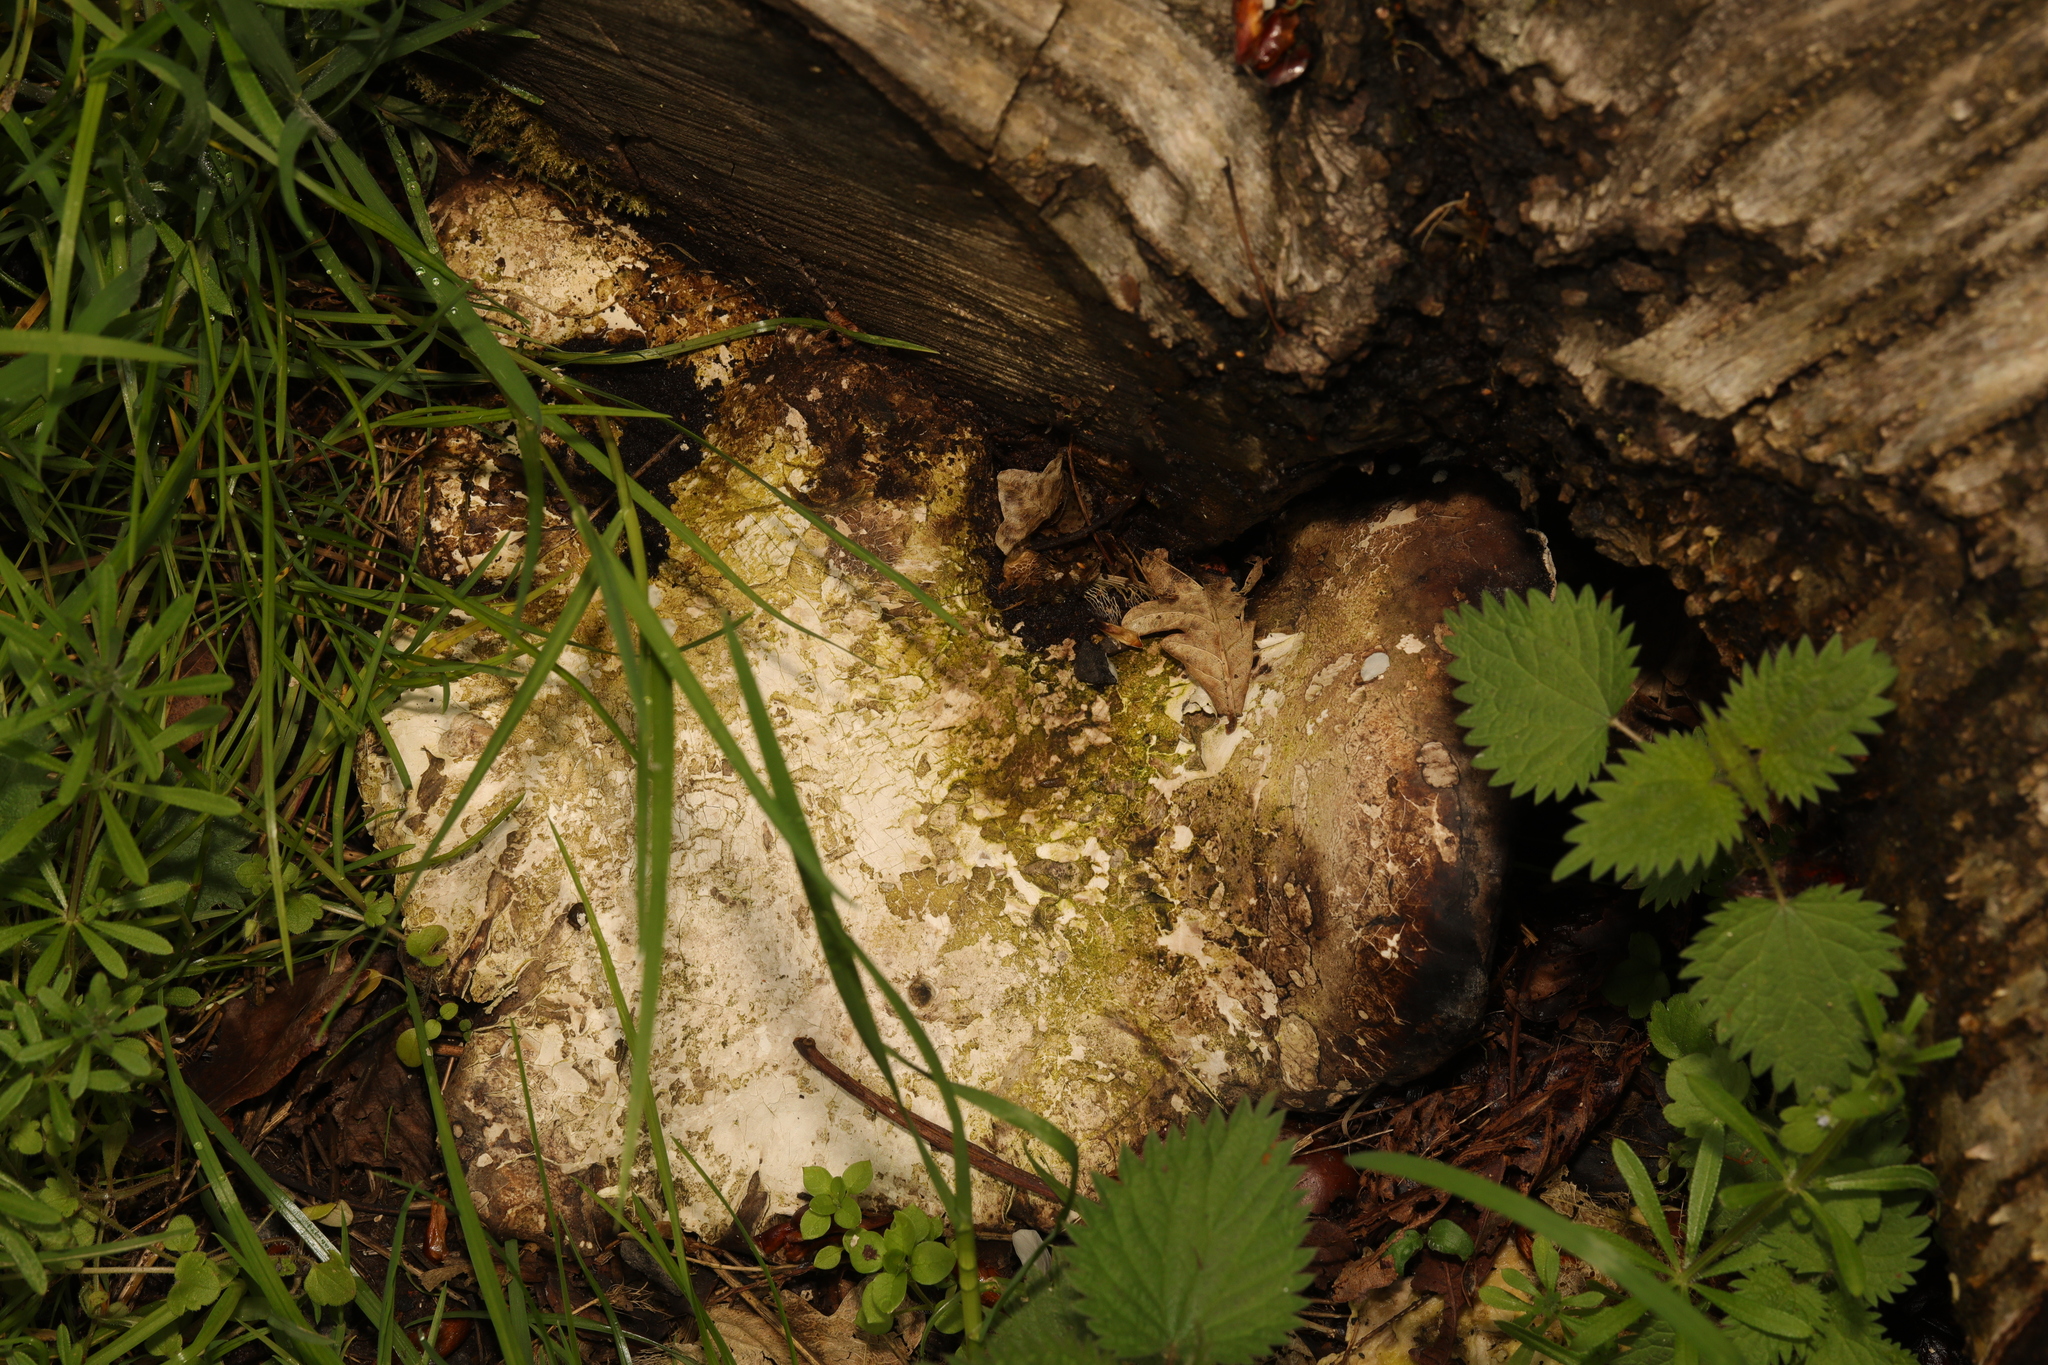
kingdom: Fungi
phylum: Basidiomycota
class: Agaricomycetes
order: Polyporales
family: Fomitopsidaceae
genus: Fomitopsis
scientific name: Fomitopsis betulina
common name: Birch polypore
